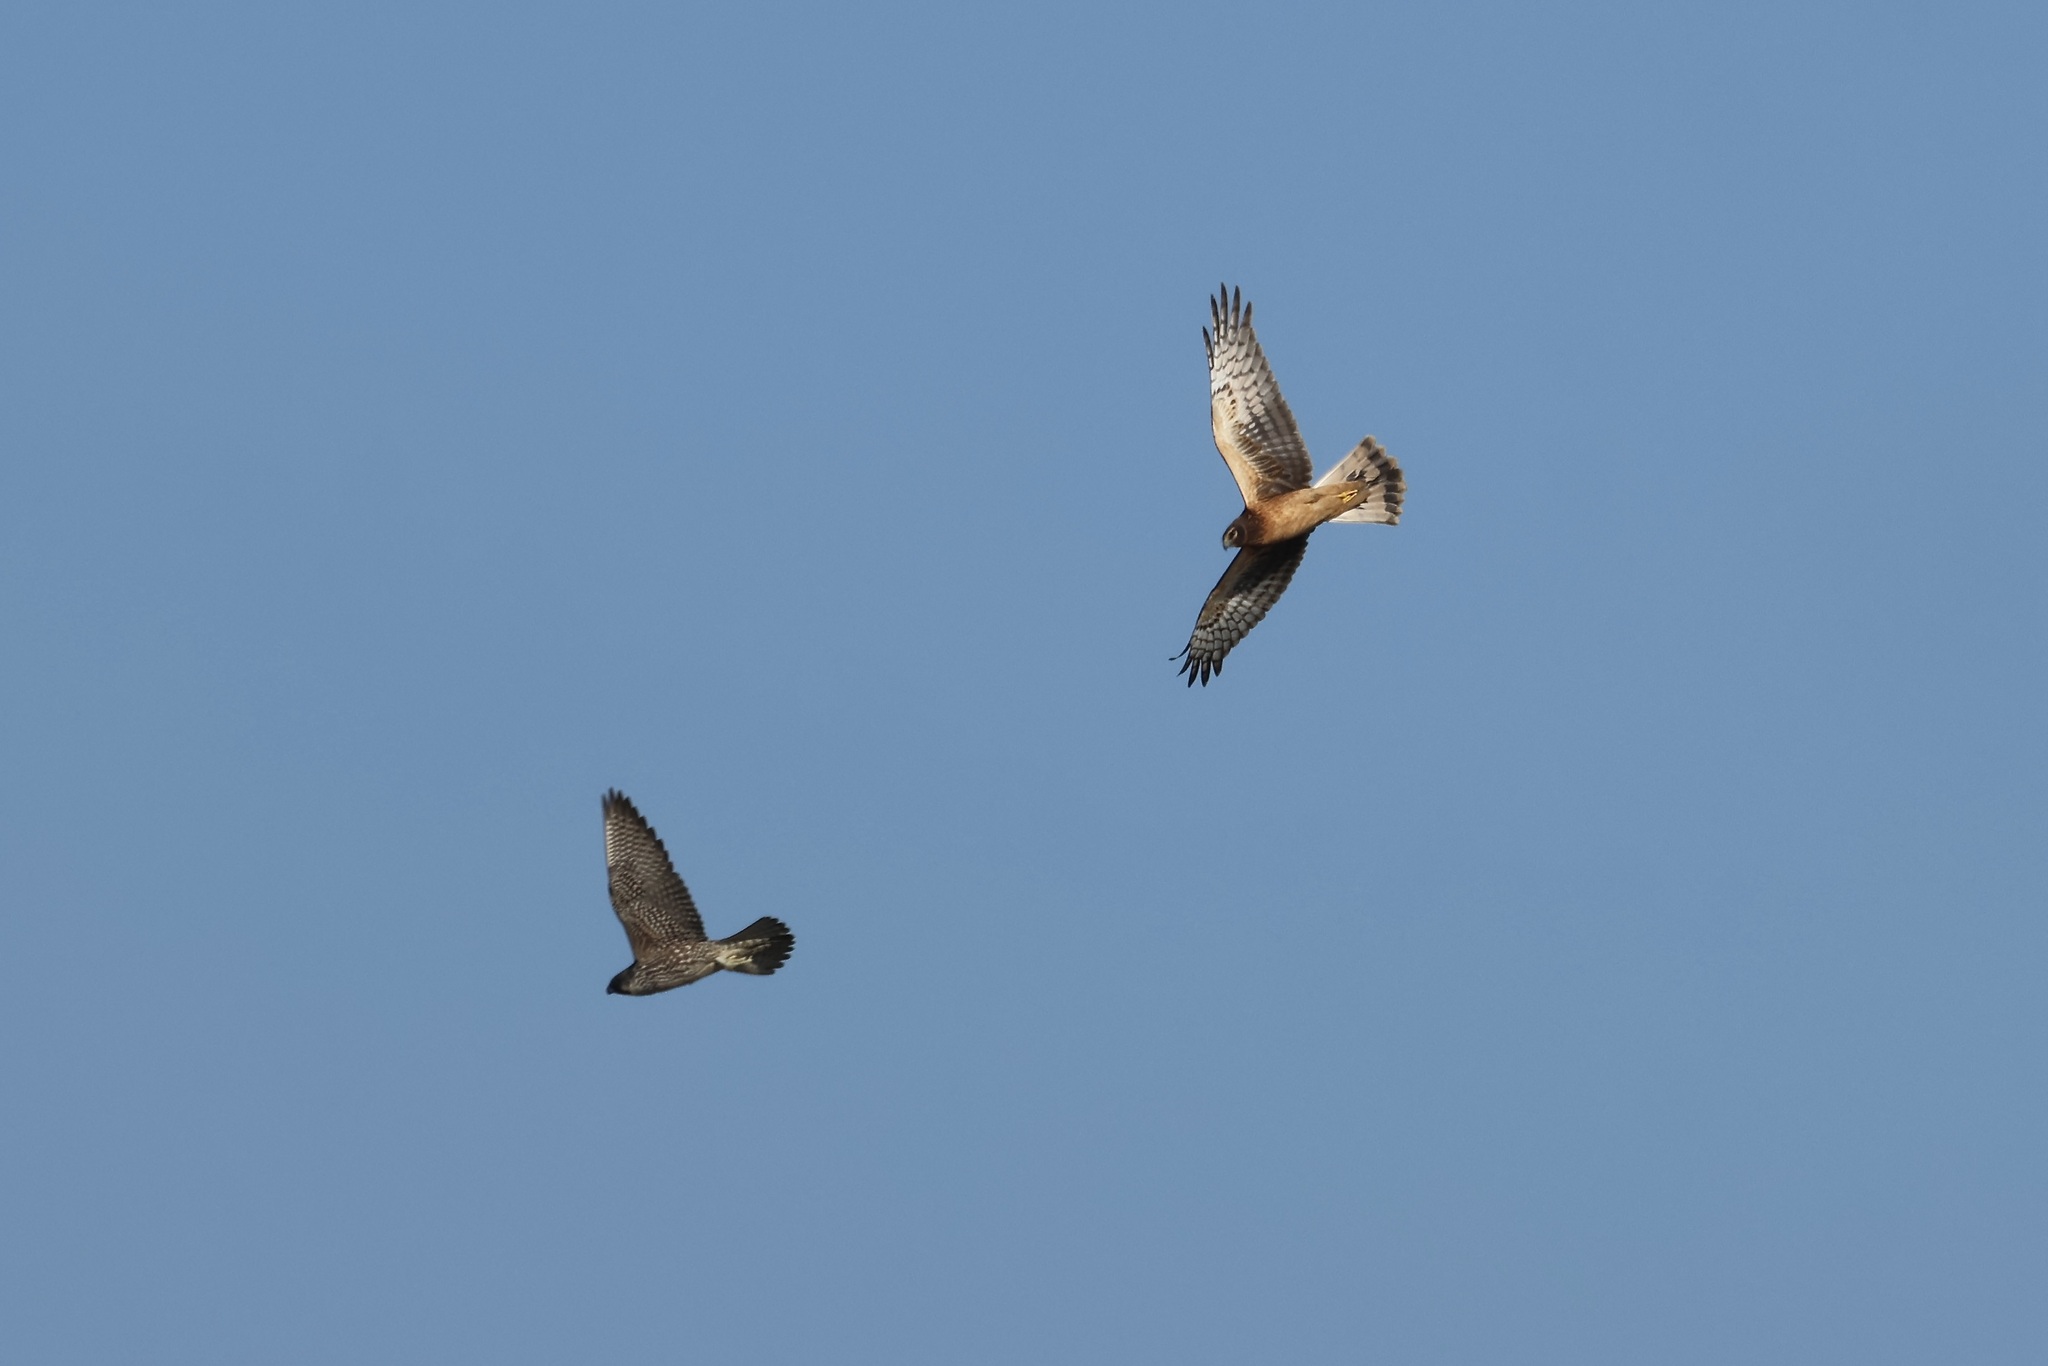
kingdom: Animalia
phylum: Chordata
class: Aves
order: Accipitriformes
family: Accipitridae
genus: Circus
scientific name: Circus cyaneus
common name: Hen harrier
